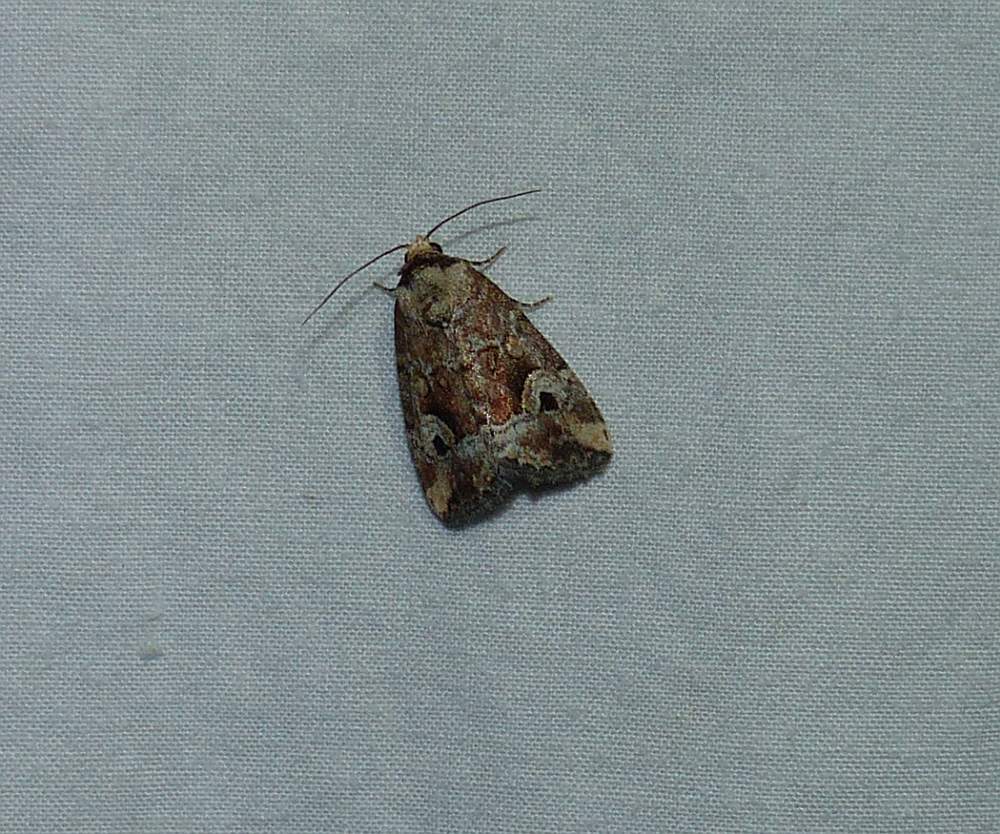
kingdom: Animalia
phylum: Arthropoda
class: Insecta
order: Lepidoptera
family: Noctuidae
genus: Elaphria
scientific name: Elaphria alapallida
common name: Pale-winged midget
